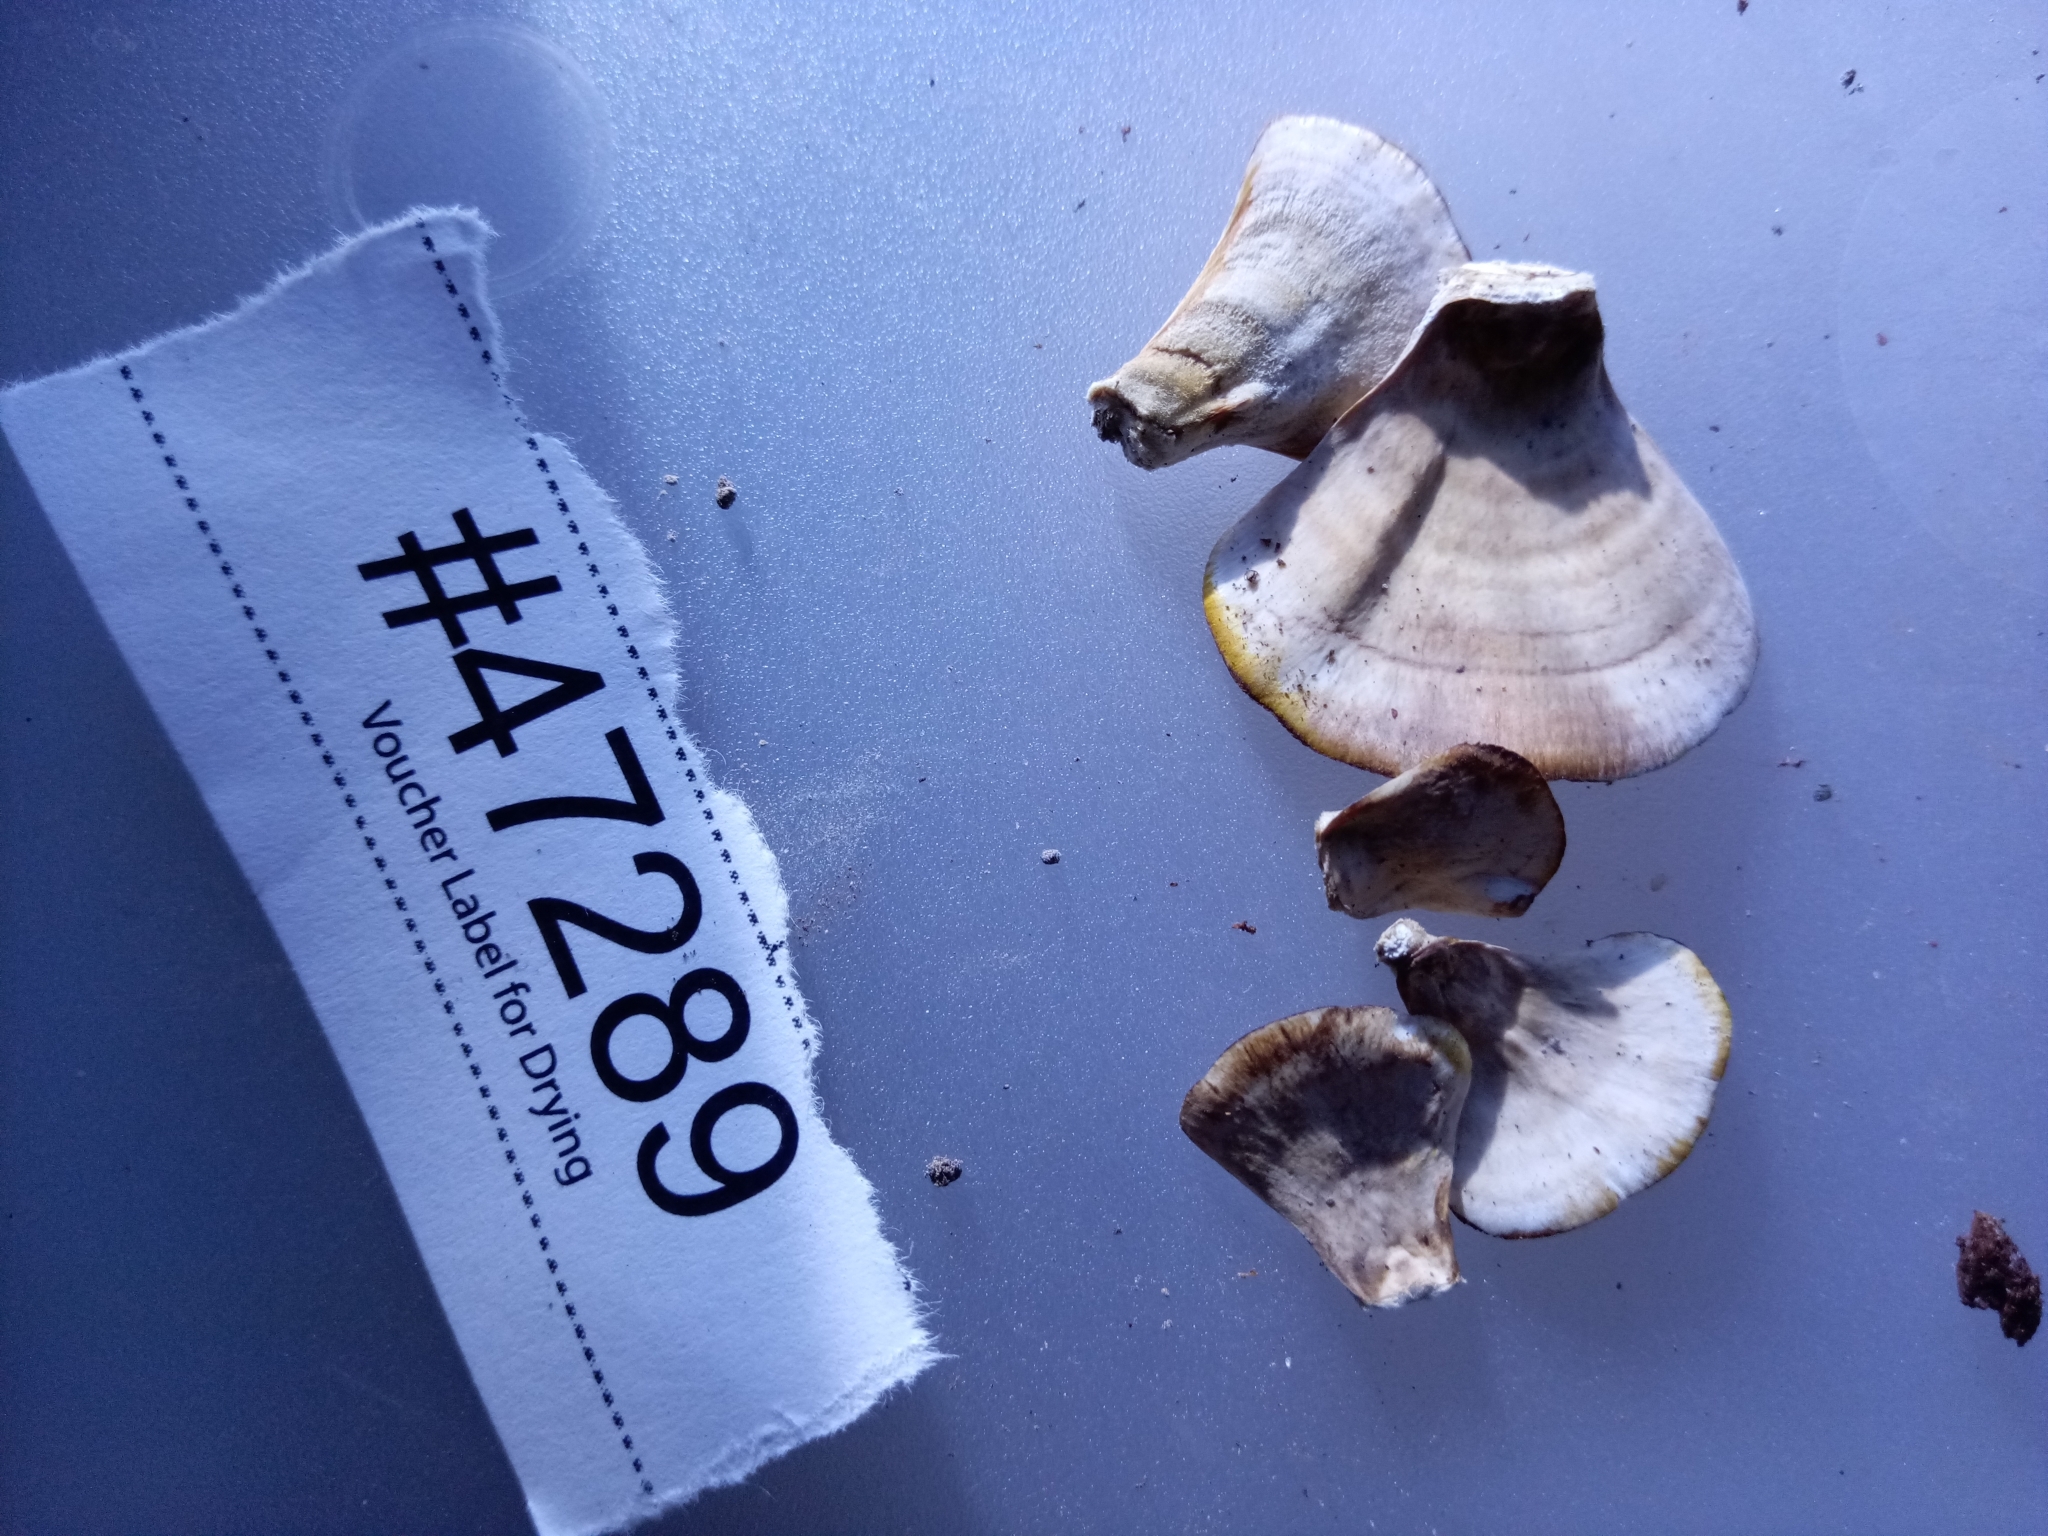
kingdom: Fungi
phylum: Basidiomycota
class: Agaricomycetes
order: Russulales
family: Stereaceae
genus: Stereum
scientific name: Stereum lobatum
